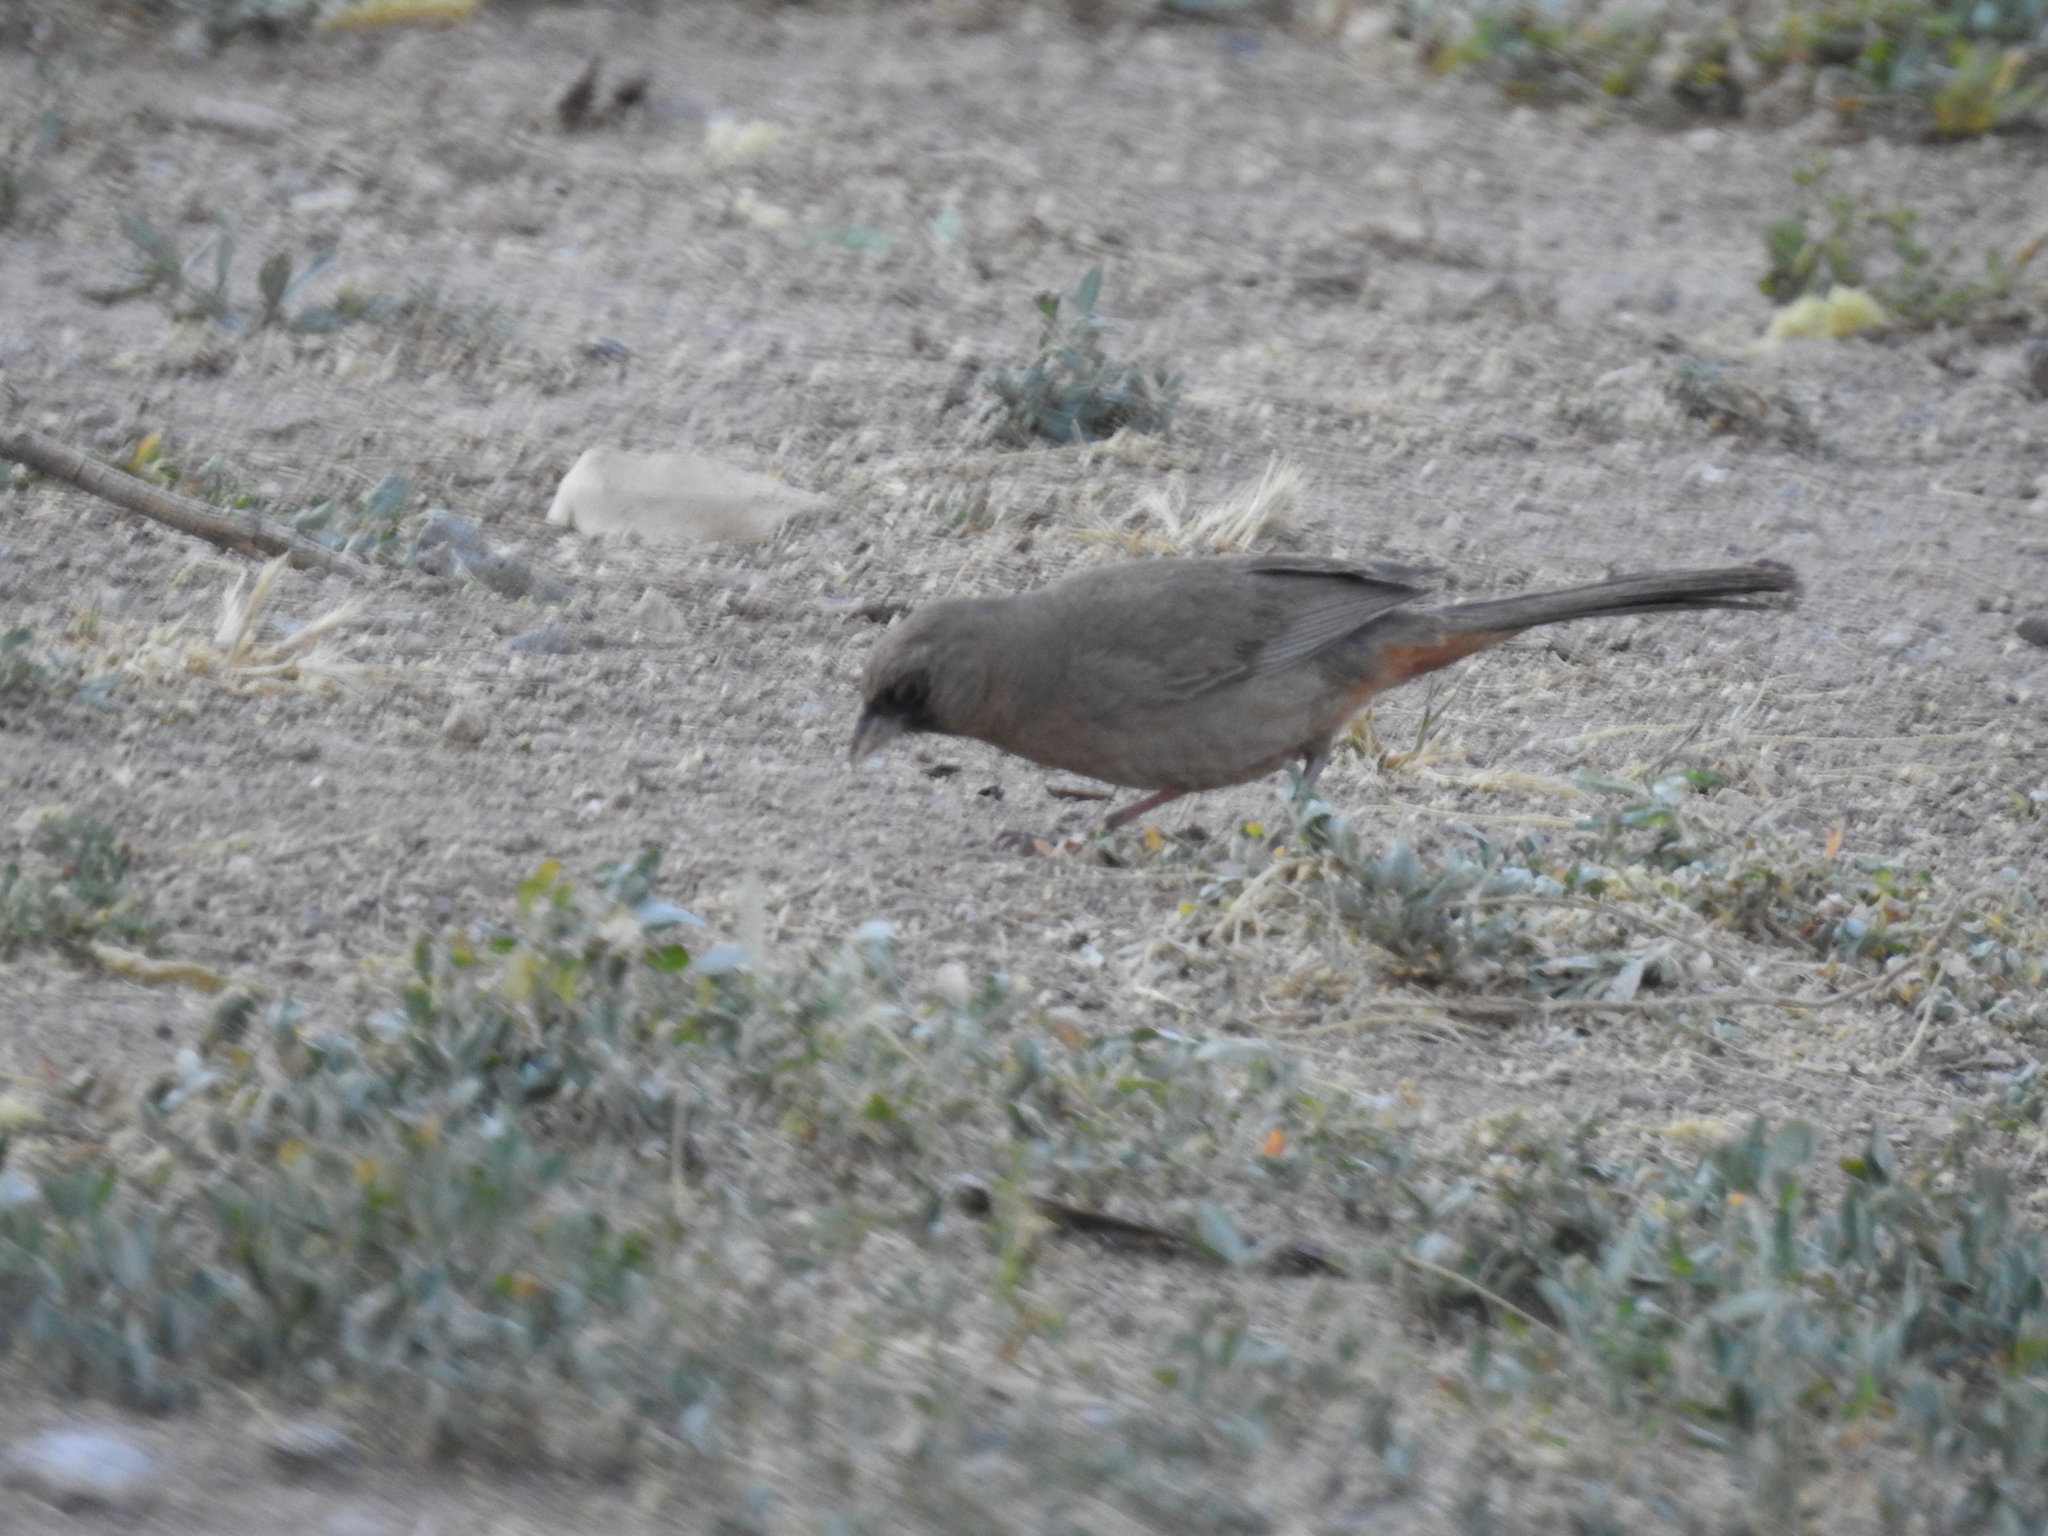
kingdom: Animalia
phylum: Chordata
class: Aves
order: Passeriformes
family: Passerellidae
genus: Melozone
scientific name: Melozone aberti
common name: Abert's towhee
